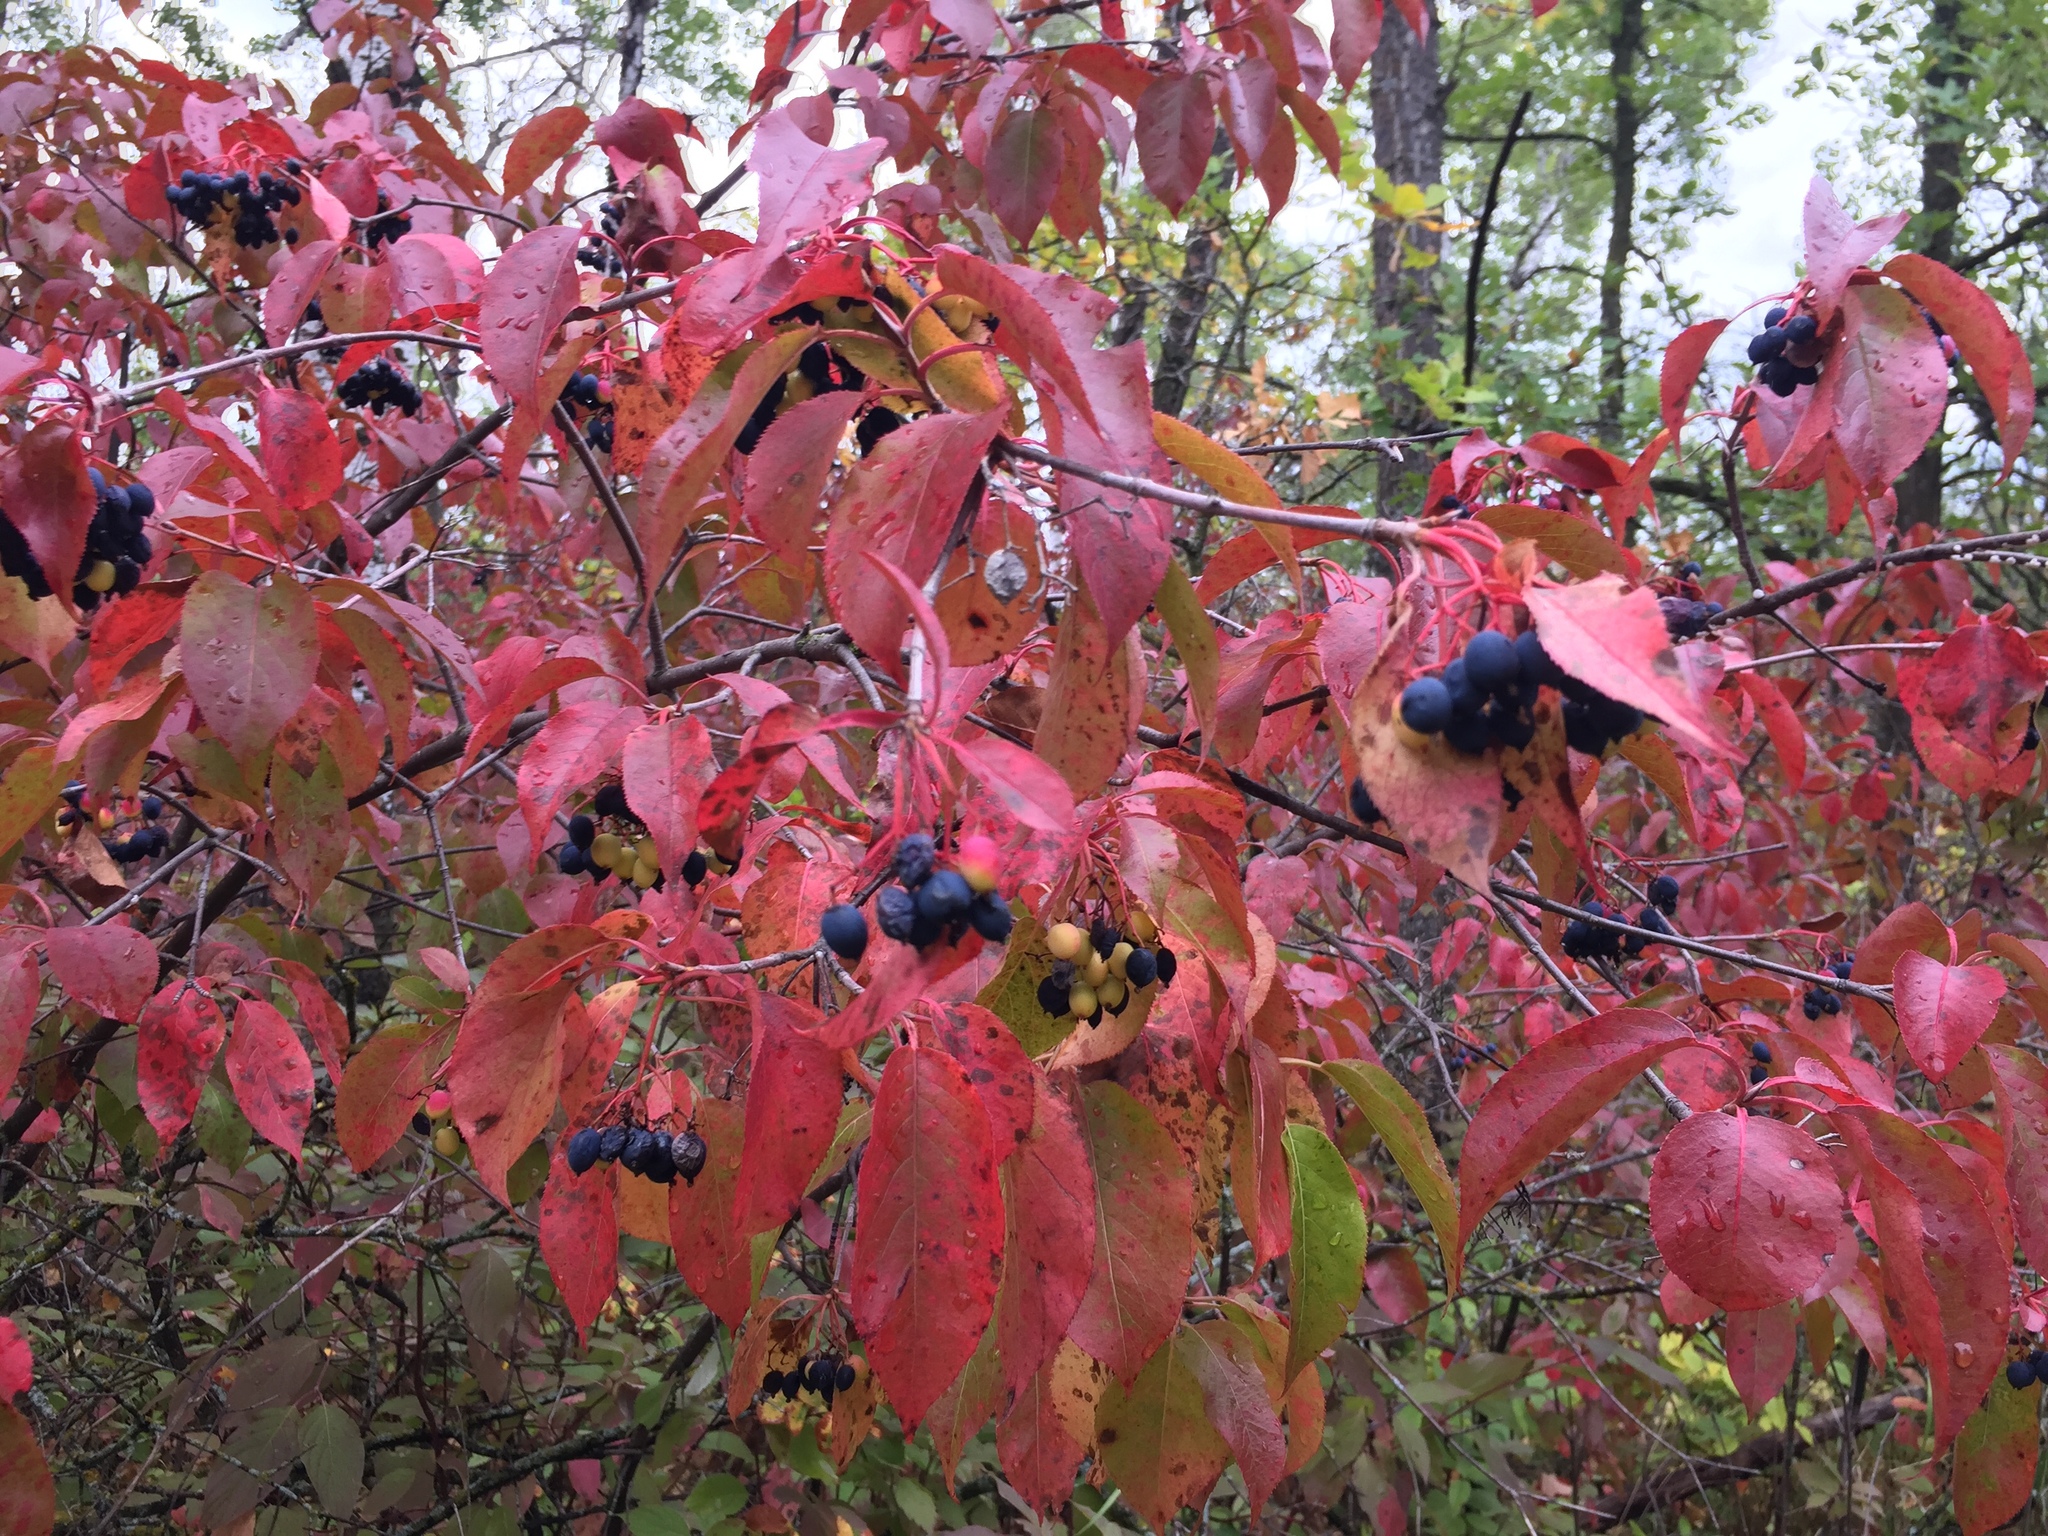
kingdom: Plantae
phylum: Tracheophyta
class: Magnoliopsida
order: Dipsacales
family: Viburnaceae
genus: Viburnum
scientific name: Viburnum lentago
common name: Black haw
